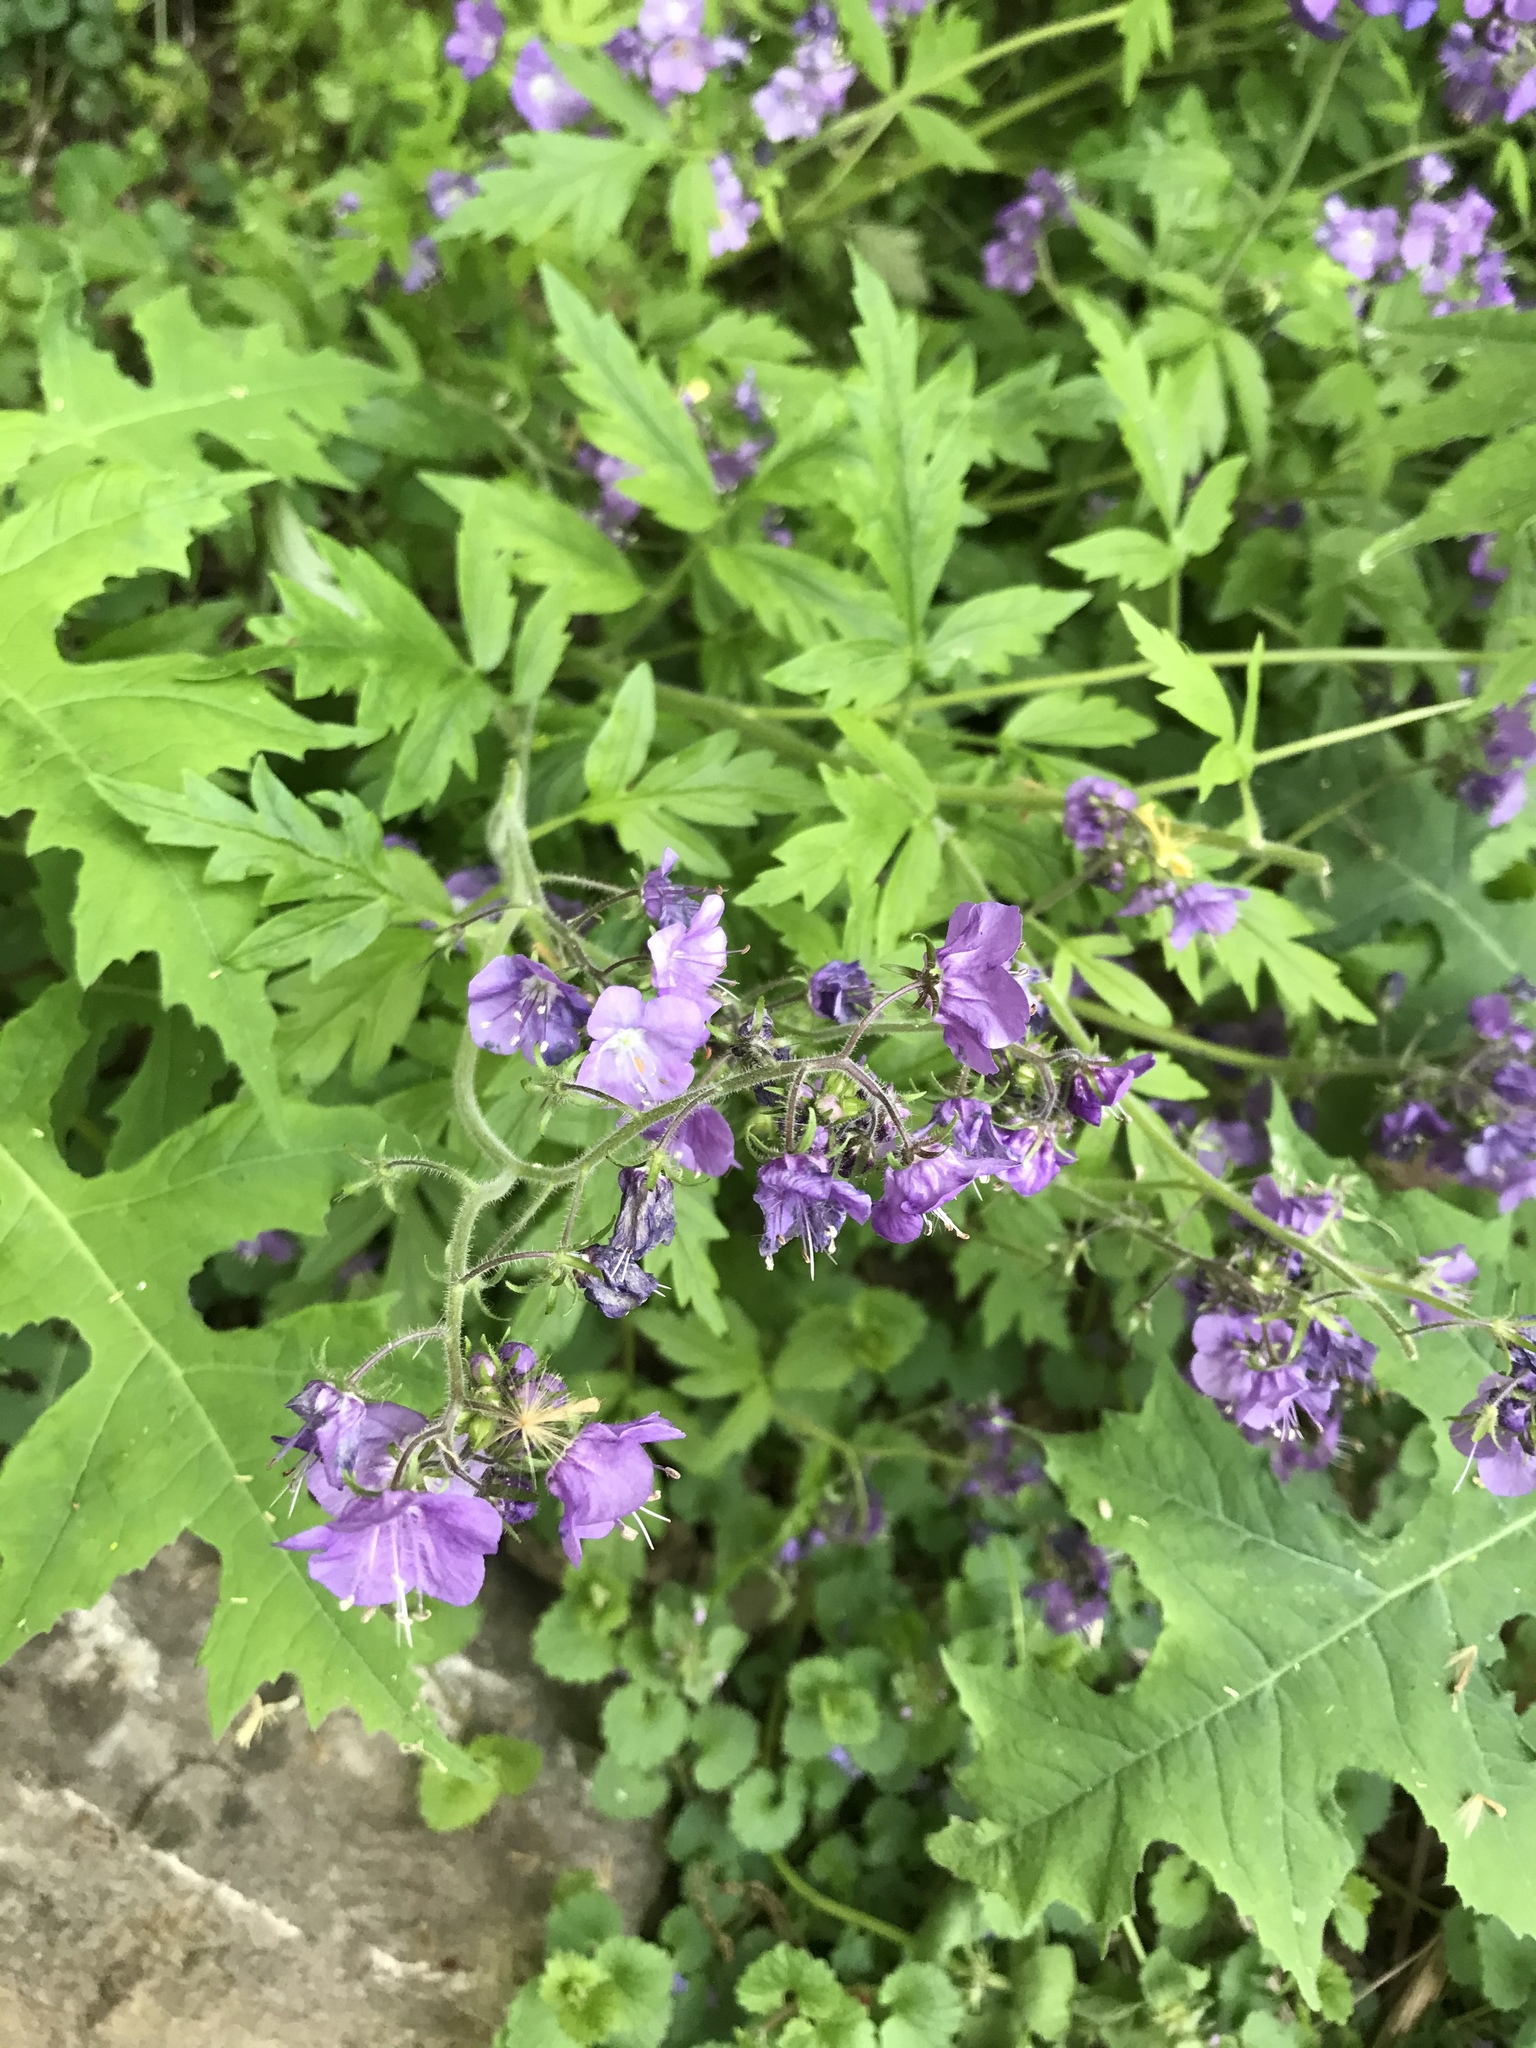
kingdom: Plantae
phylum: Tracheophyta
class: Magnoliopsida
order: Boraginales
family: Hydrophyllaceae
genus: Phacelia
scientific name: Phacelia bipinnatifida
